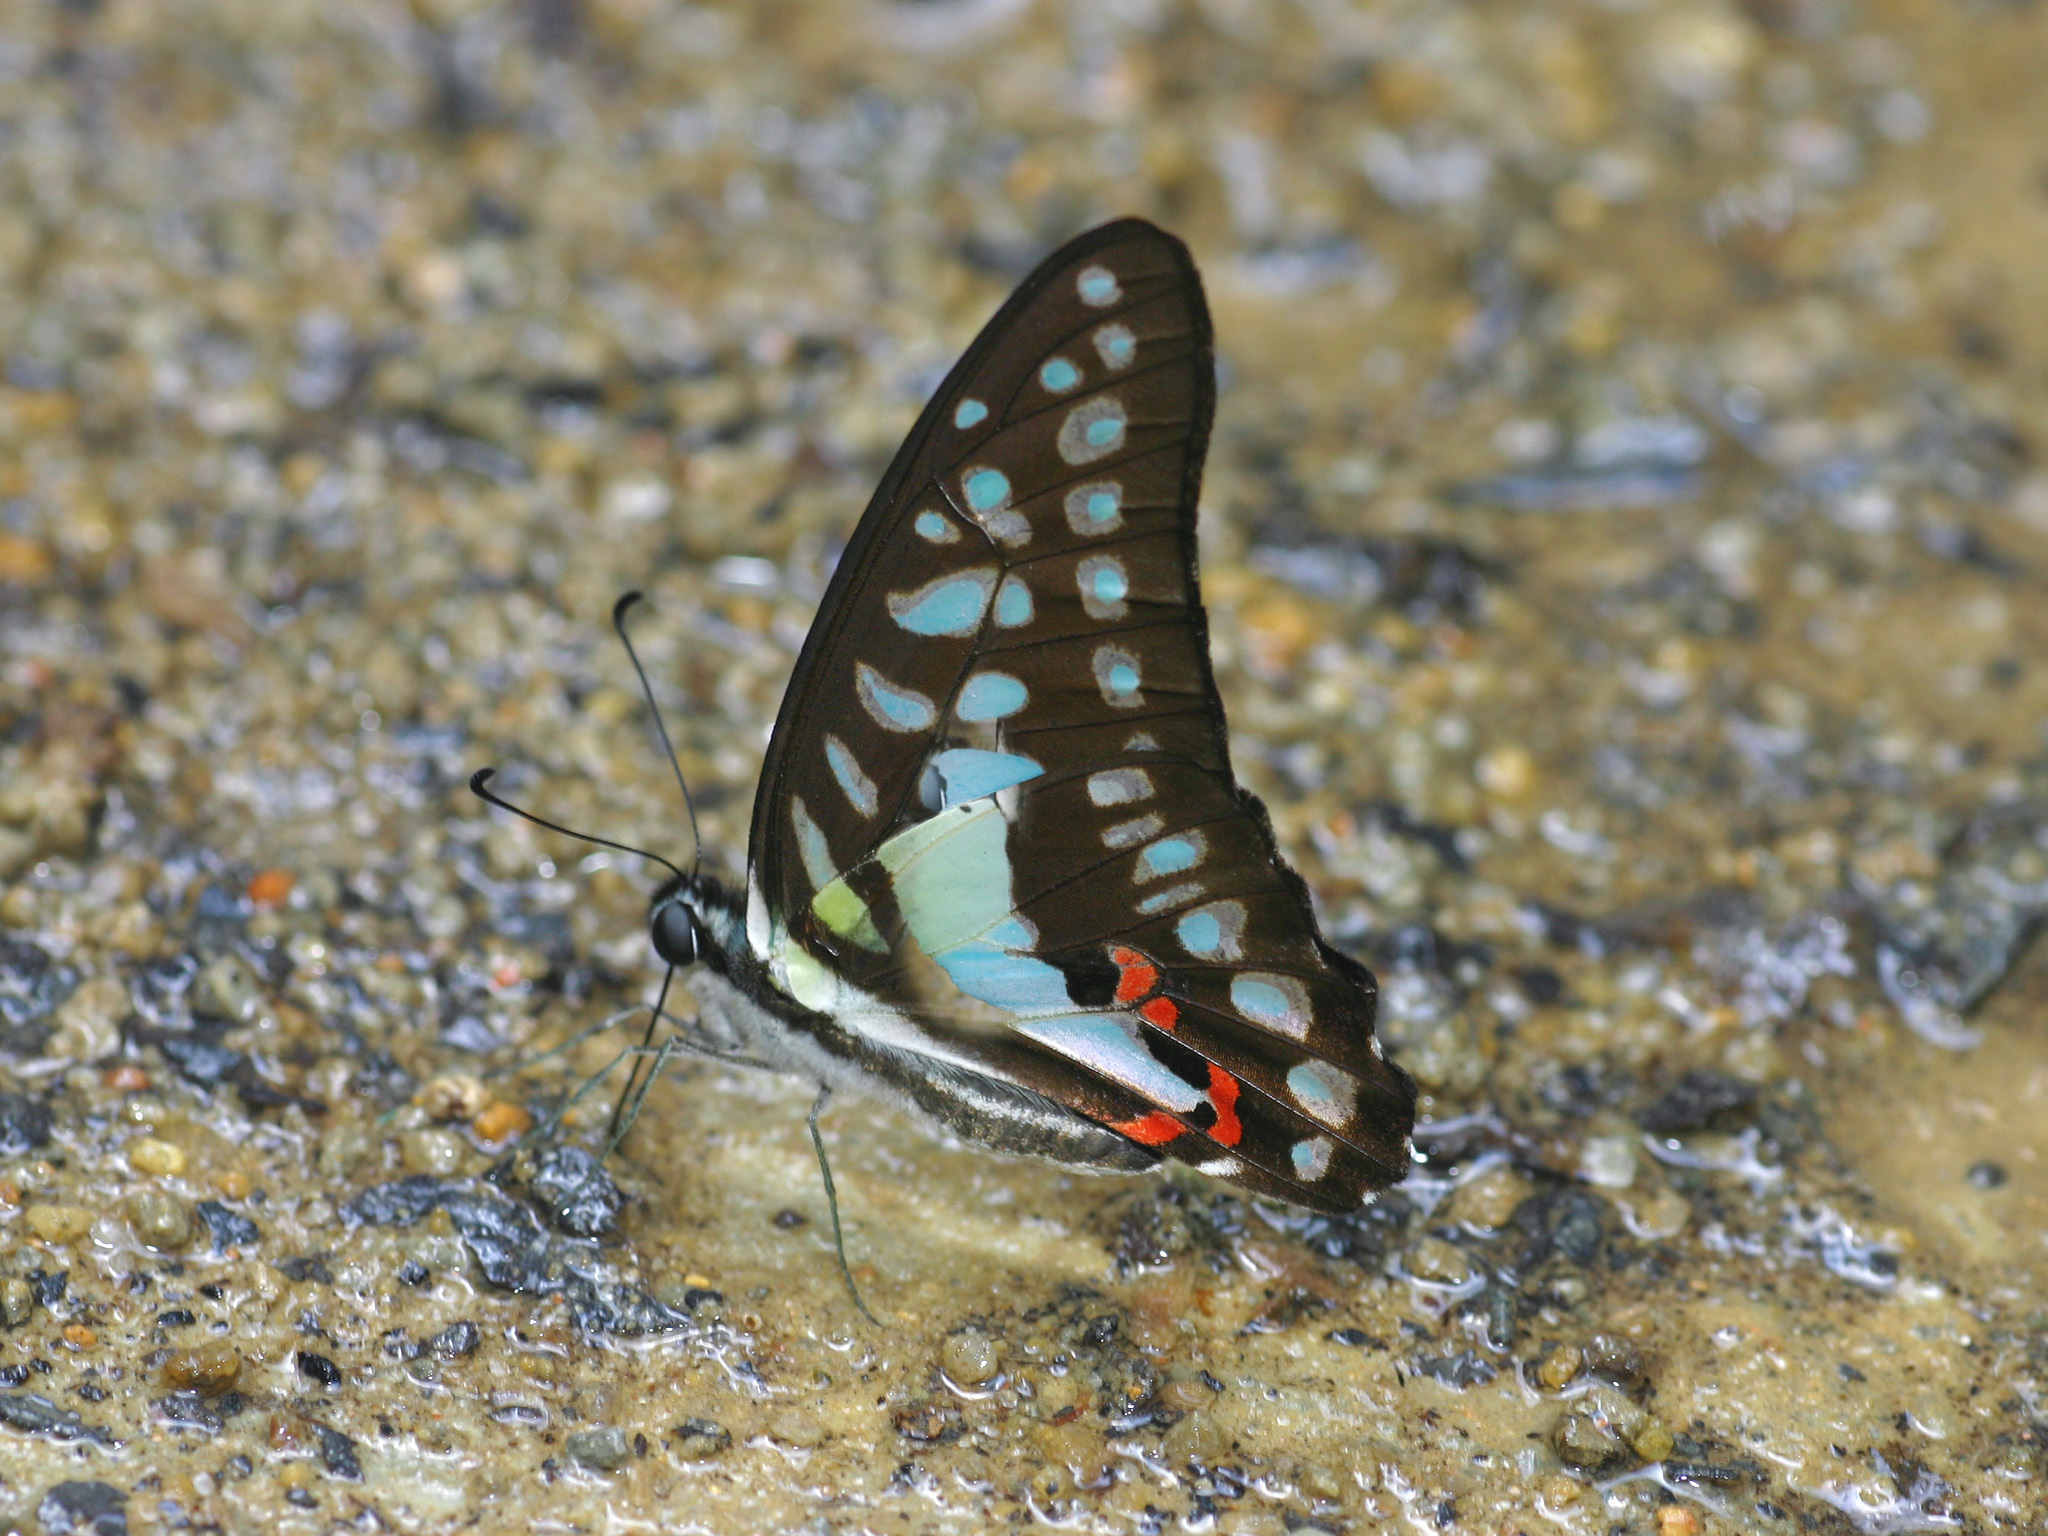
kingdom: Animalia
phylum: Arthropoda
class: Insecta
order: Lepidoptera
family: Papilionidae
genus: Graphium
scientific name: Graphium evemon
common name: Lesser jay
